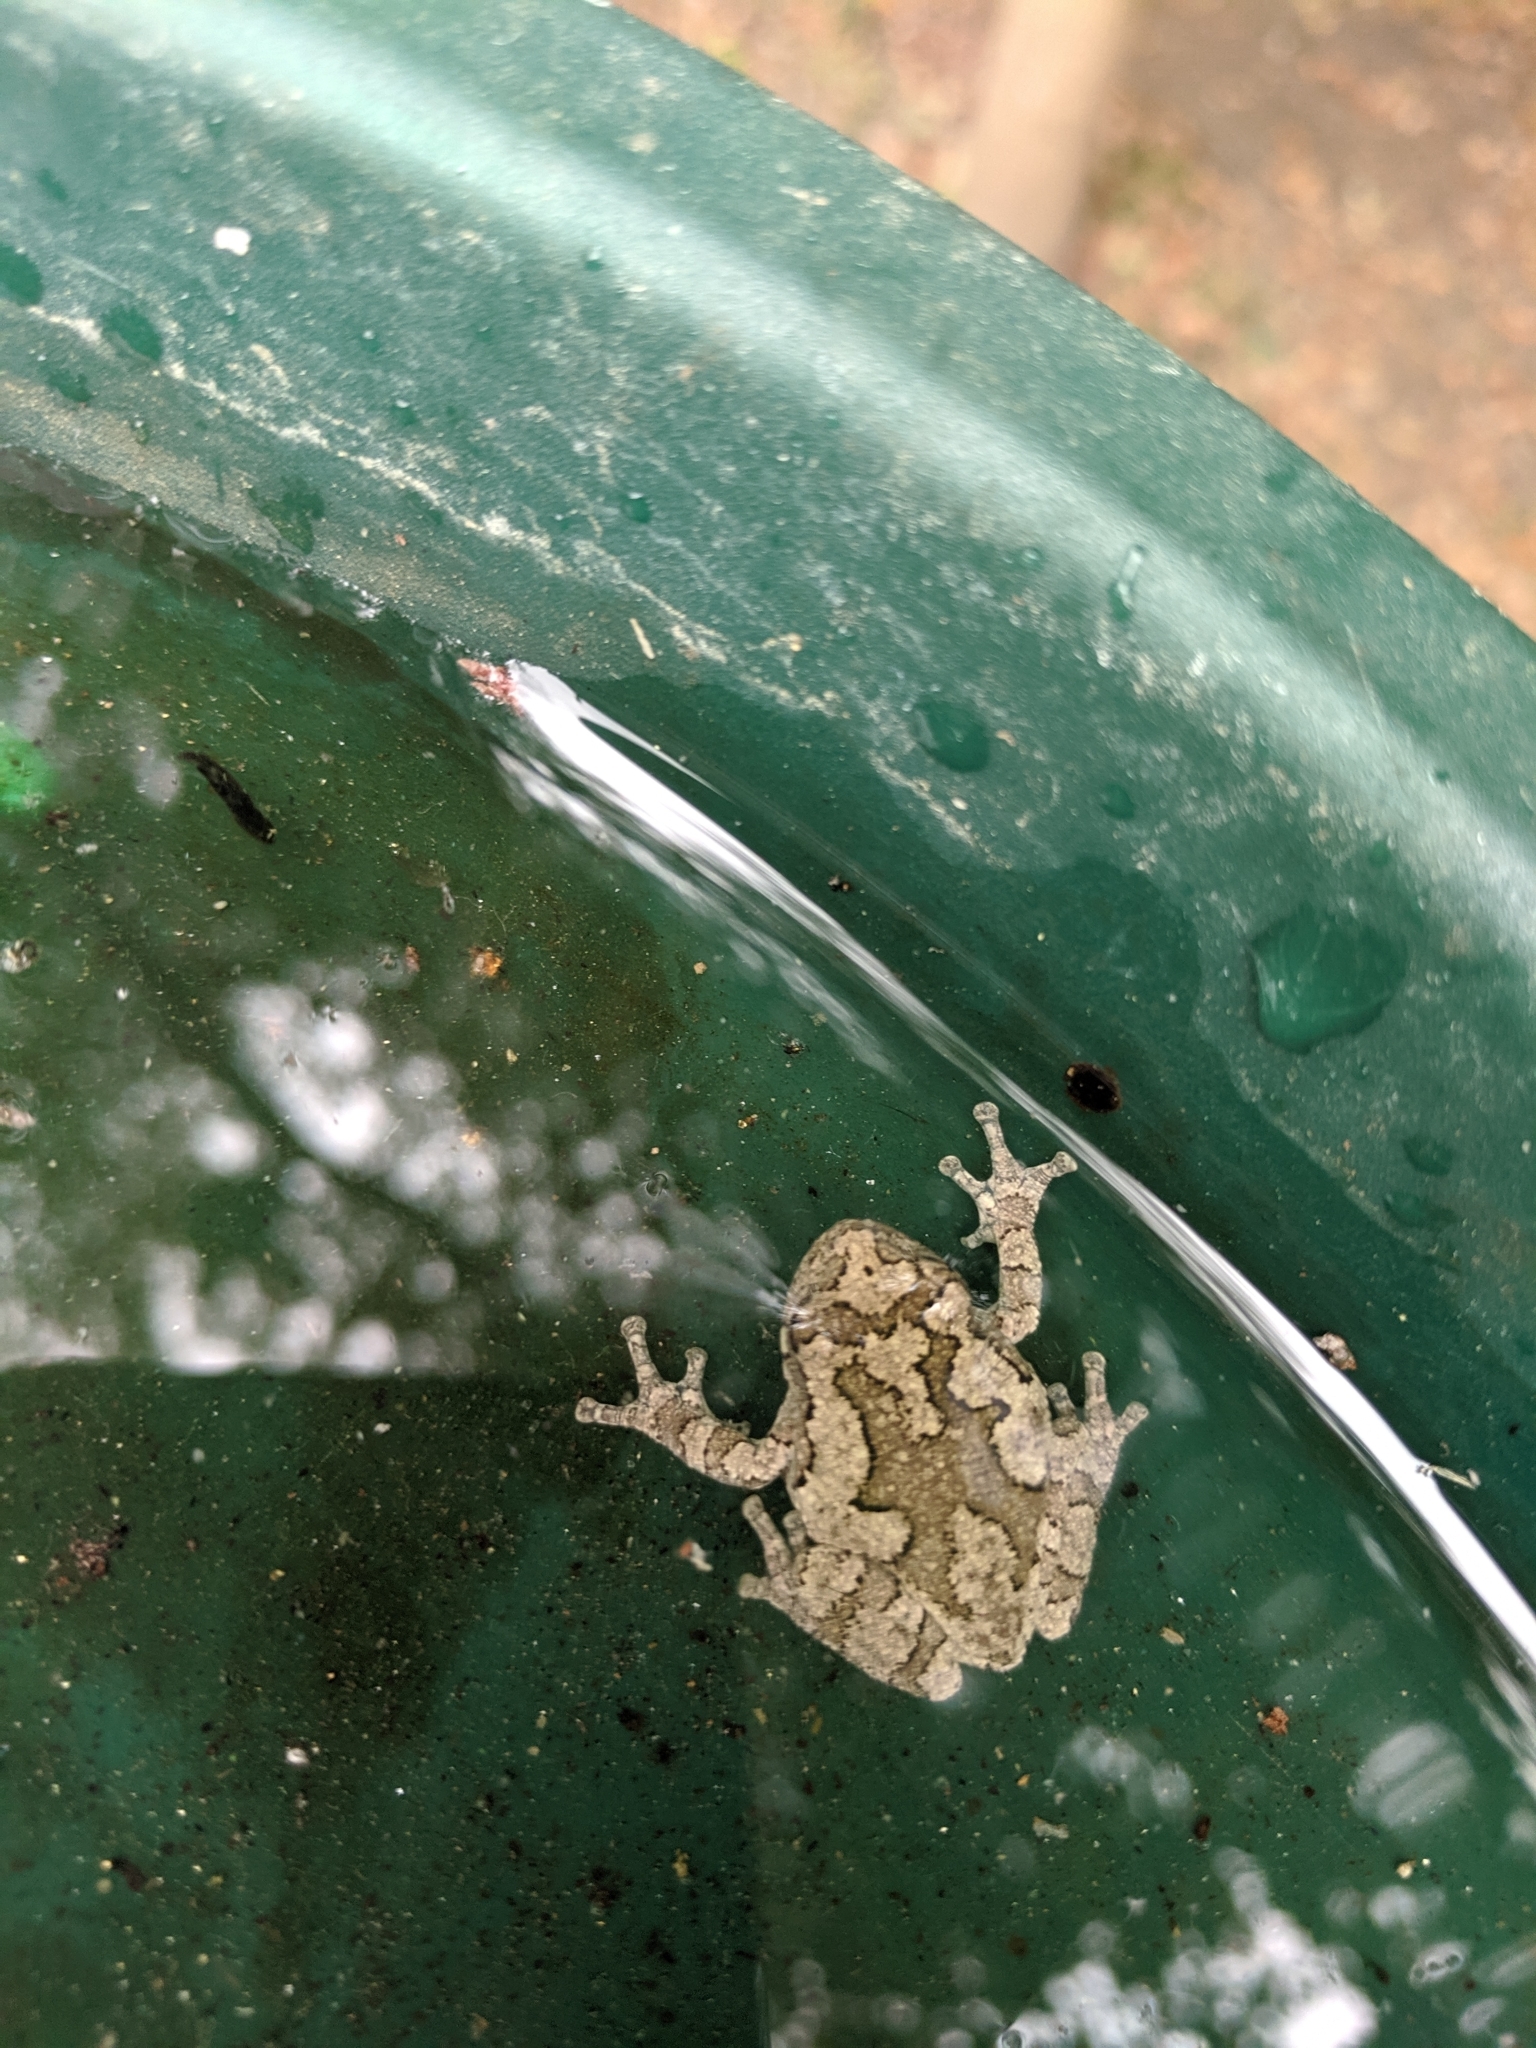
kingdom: Animalia
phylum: Chordata
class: Amphibia
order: Anura
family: Hylidae
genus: Hyla
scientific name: Hyla
